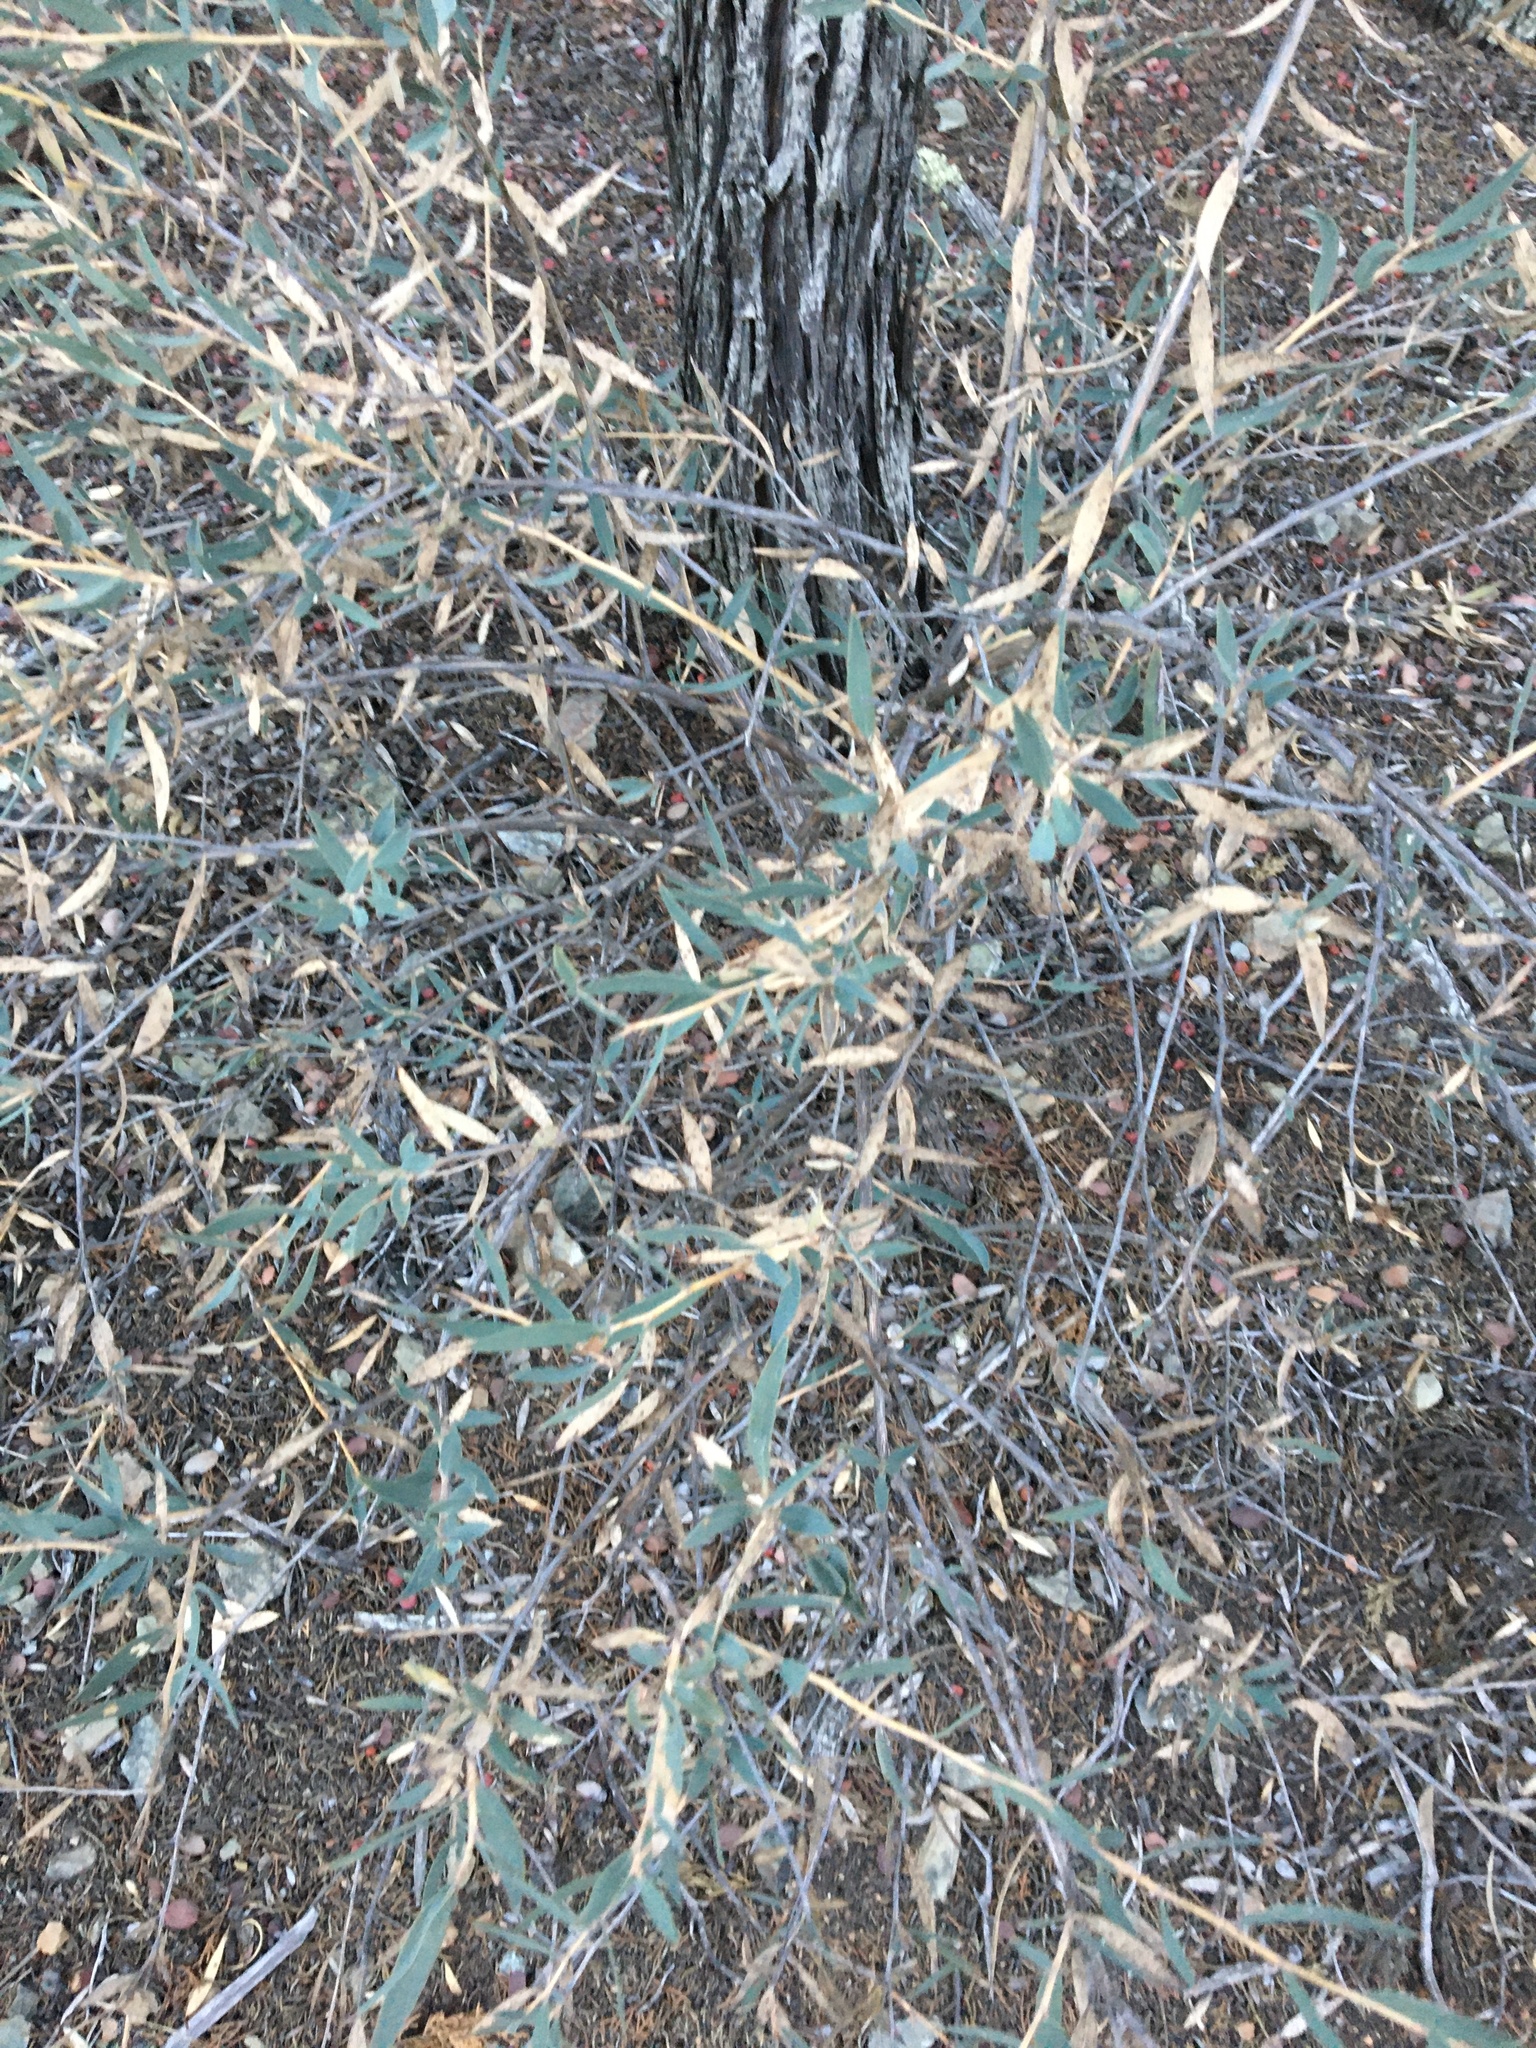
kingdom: Plantae
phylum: Tracheophyta
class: Magnoliopsida
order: Ranunculales
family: Papaveraceae
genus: Dendromecon
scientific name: Dendromecon rigida
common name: Tree poppy
